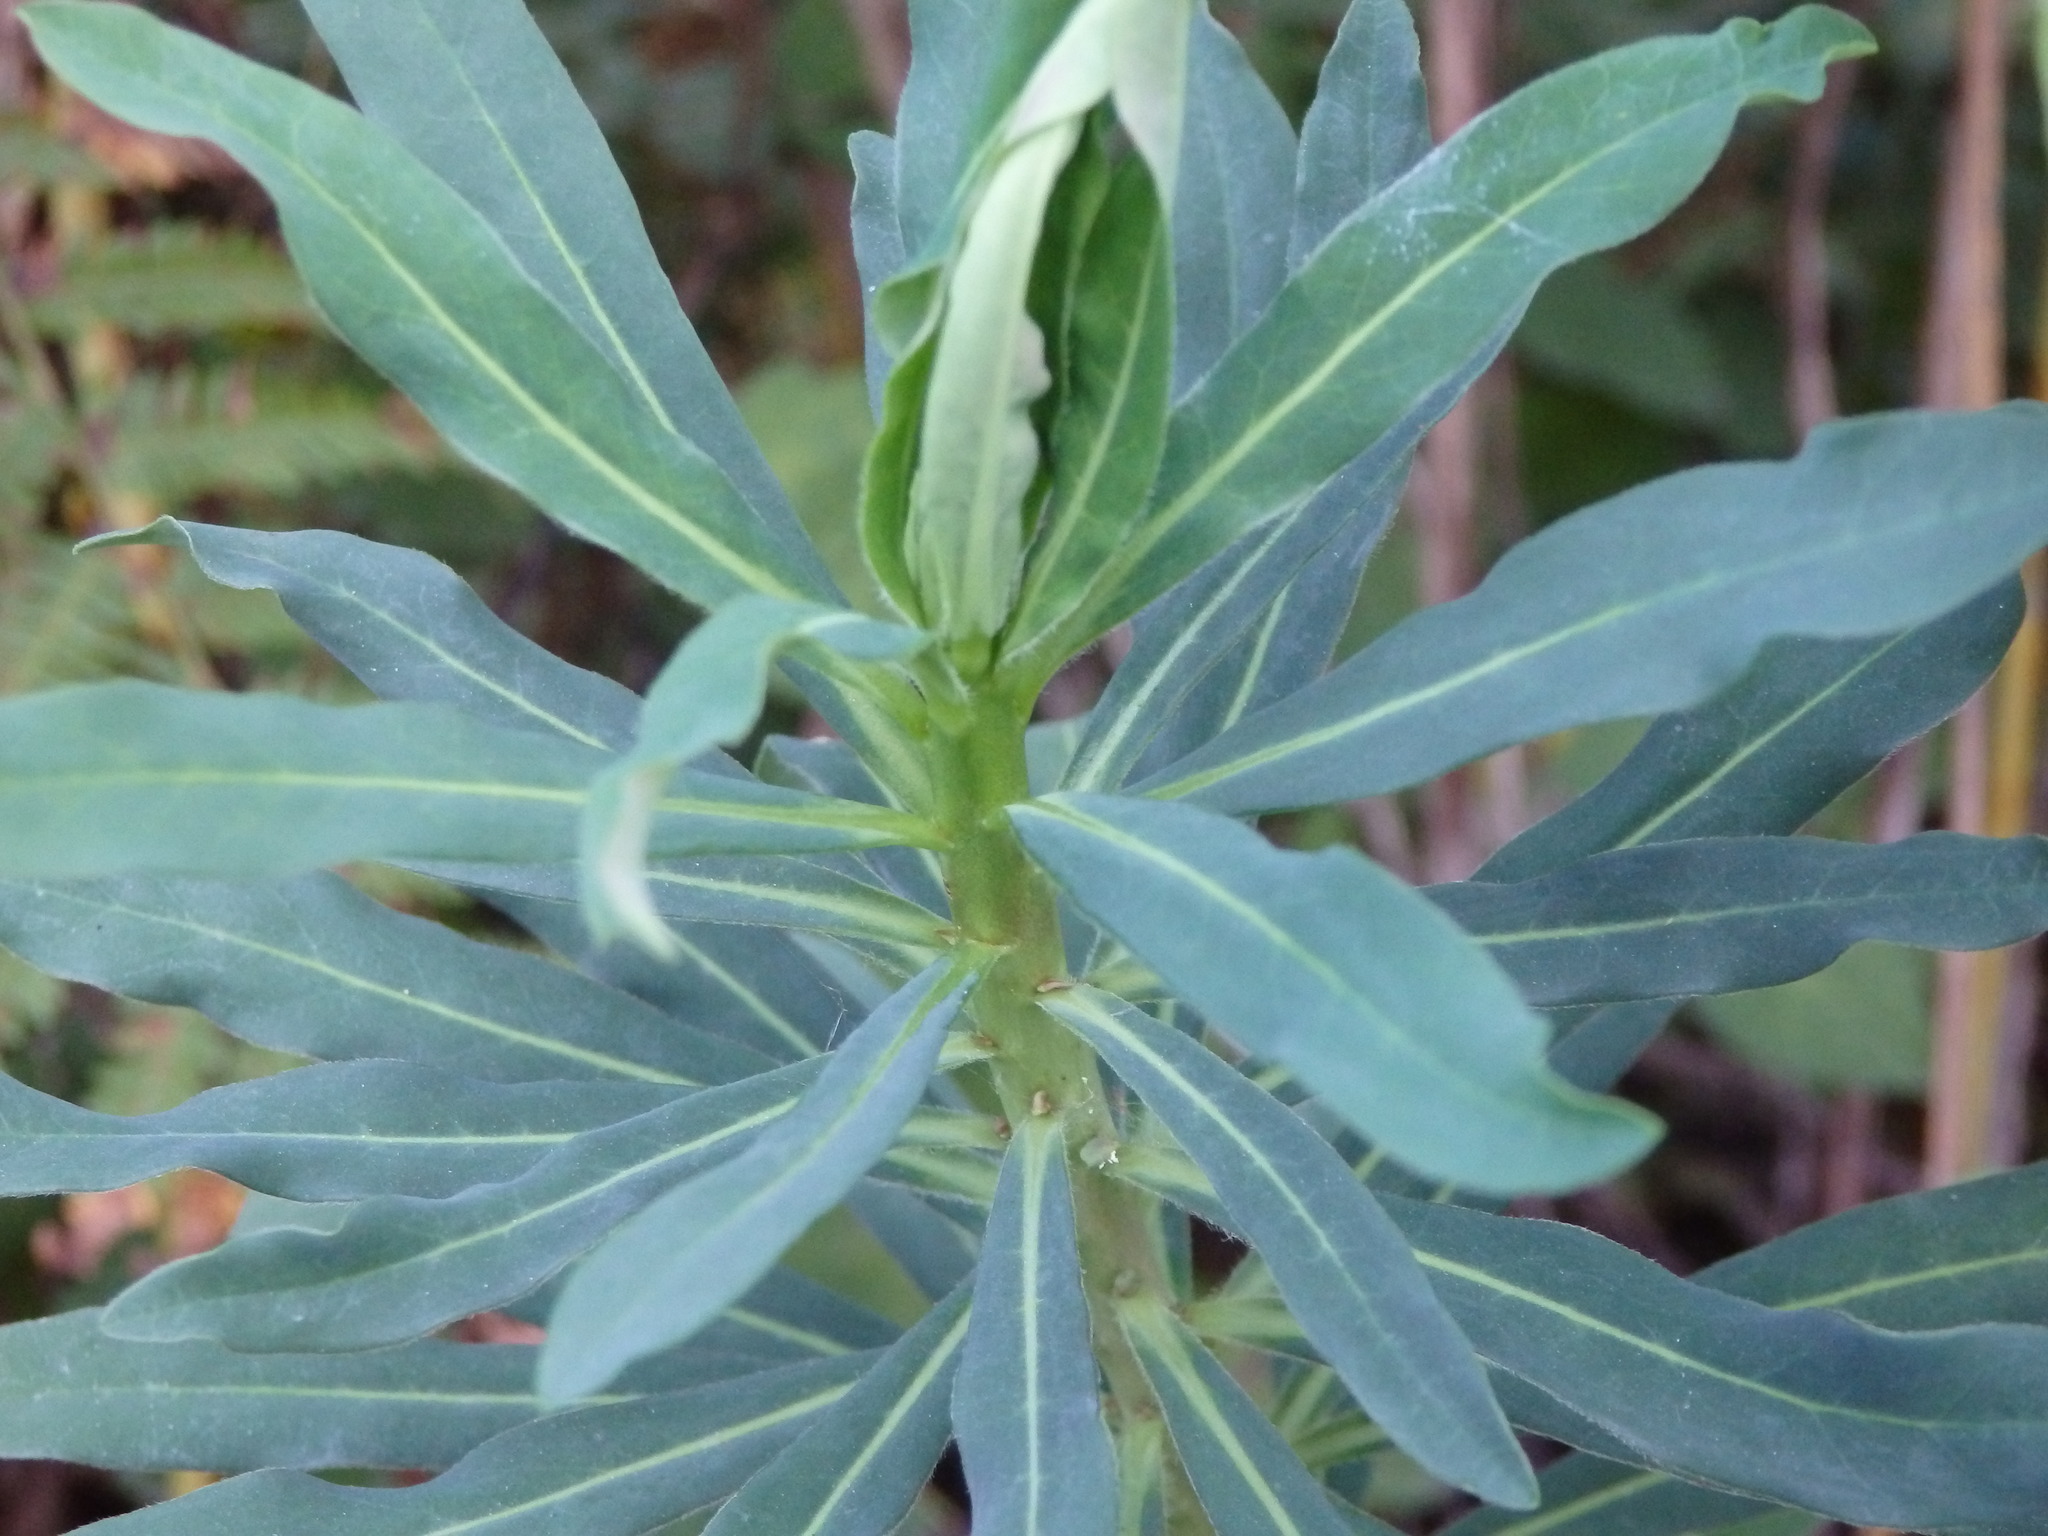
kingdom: Plantae
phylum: Tracheophyta
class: Magnoliopsida
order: Malpighiales
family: Euphorbiaceae
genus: Euphorbia
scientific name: Euphorbia characias
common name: Mediterranean spurge
